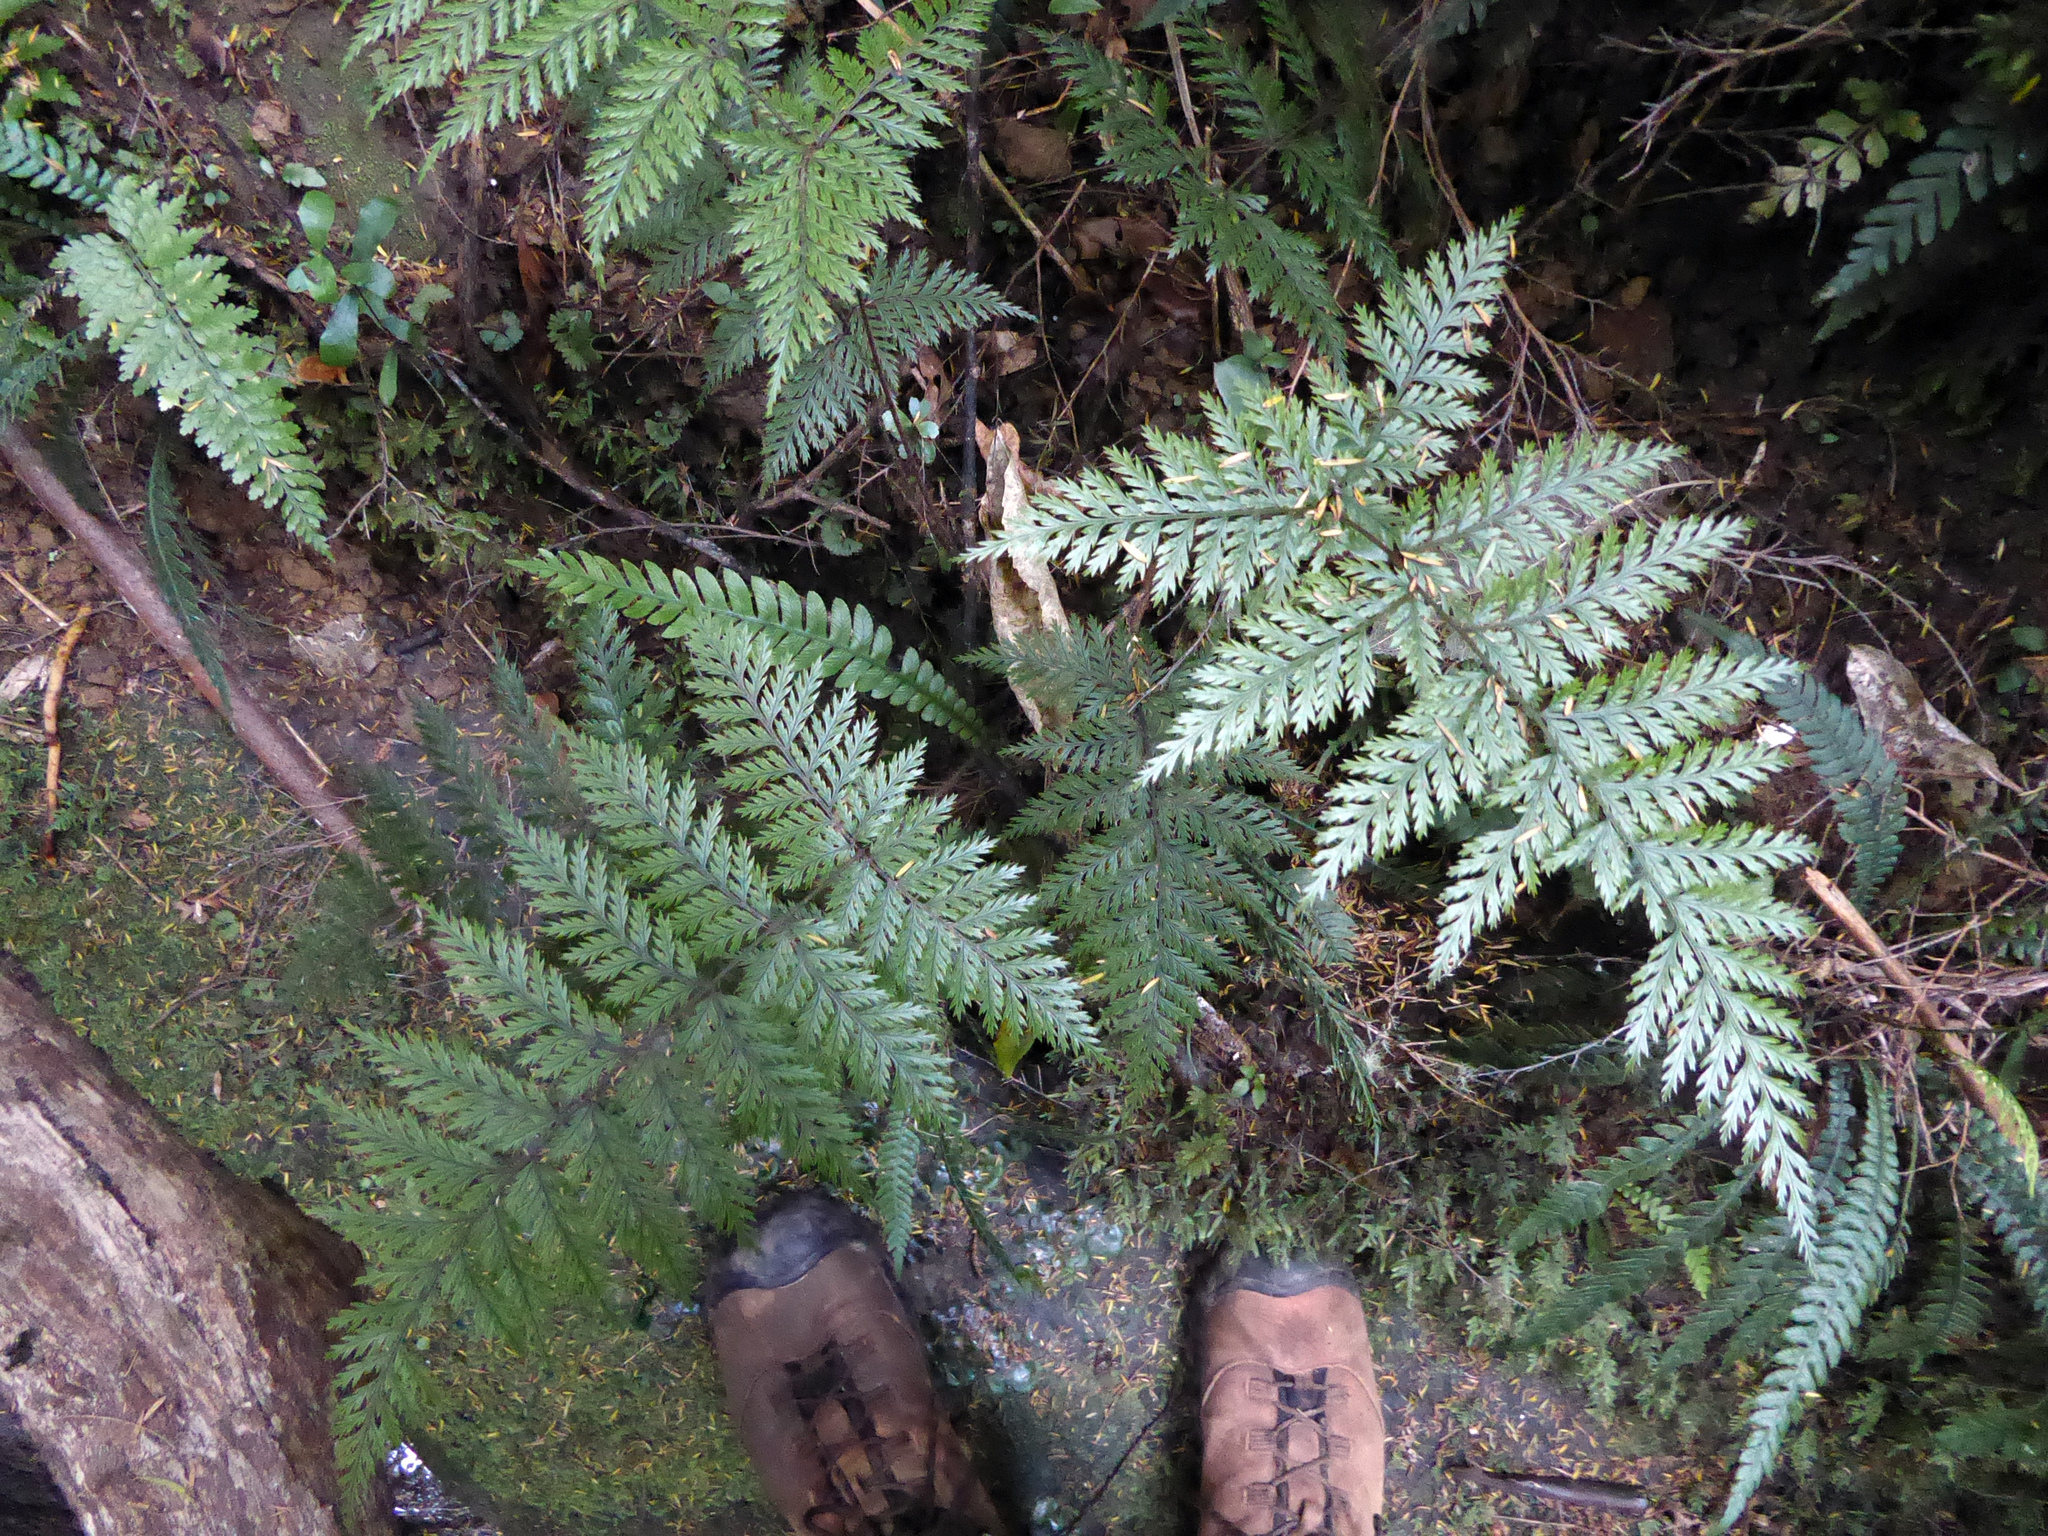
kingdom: Plantae
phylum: Tracheophyta
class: Polypodiopsida
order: Polypodiales
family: Dryopteridaceae
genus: Lastreopsis
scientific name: Lastreopsis hispida
